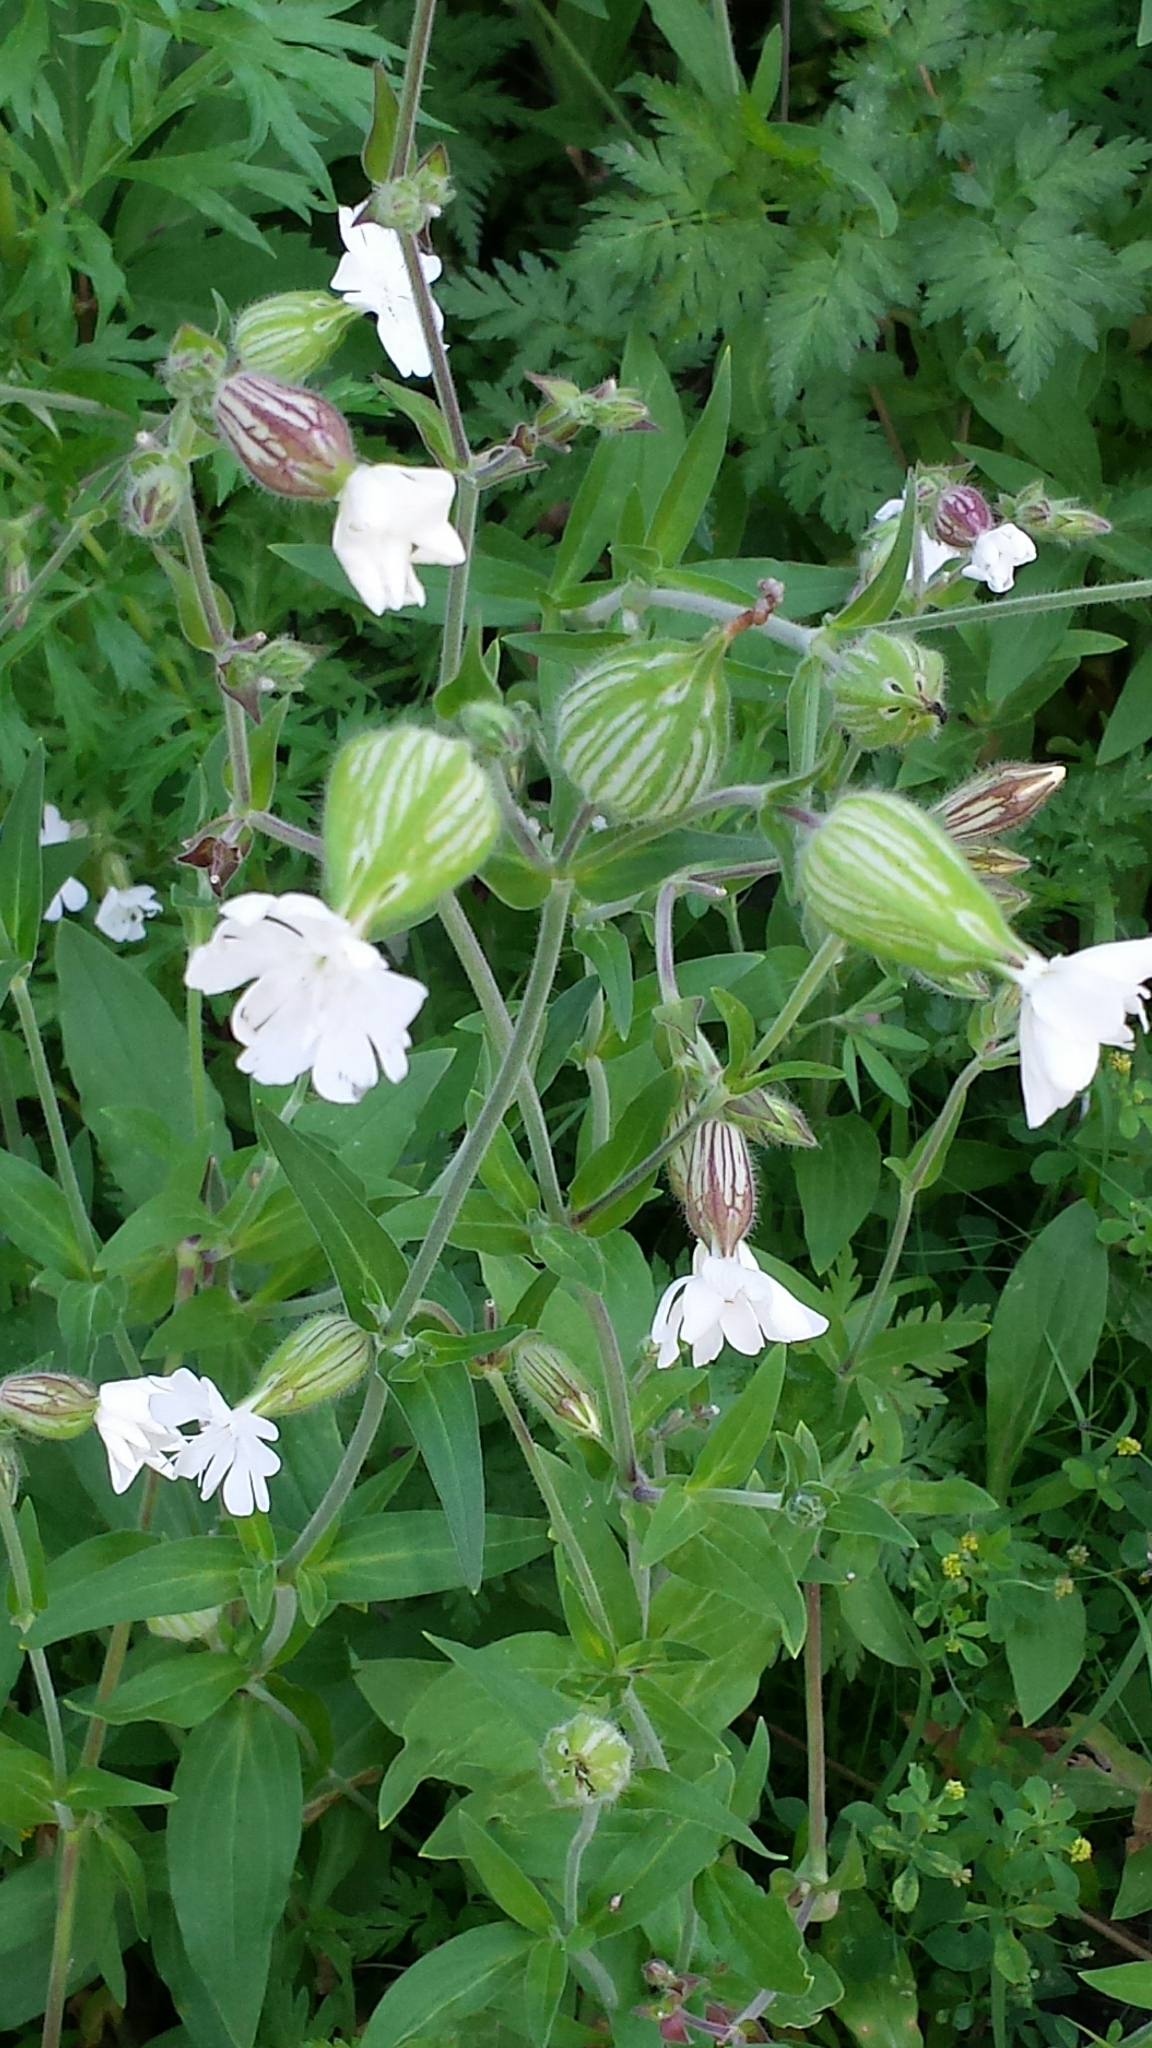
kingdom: Plantae
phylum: Tracheophyta
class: Magnoliopsida
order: Caryophyllales
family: Caryophyllaceae
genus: Silene
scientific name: Silene latifolia
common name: White campion
